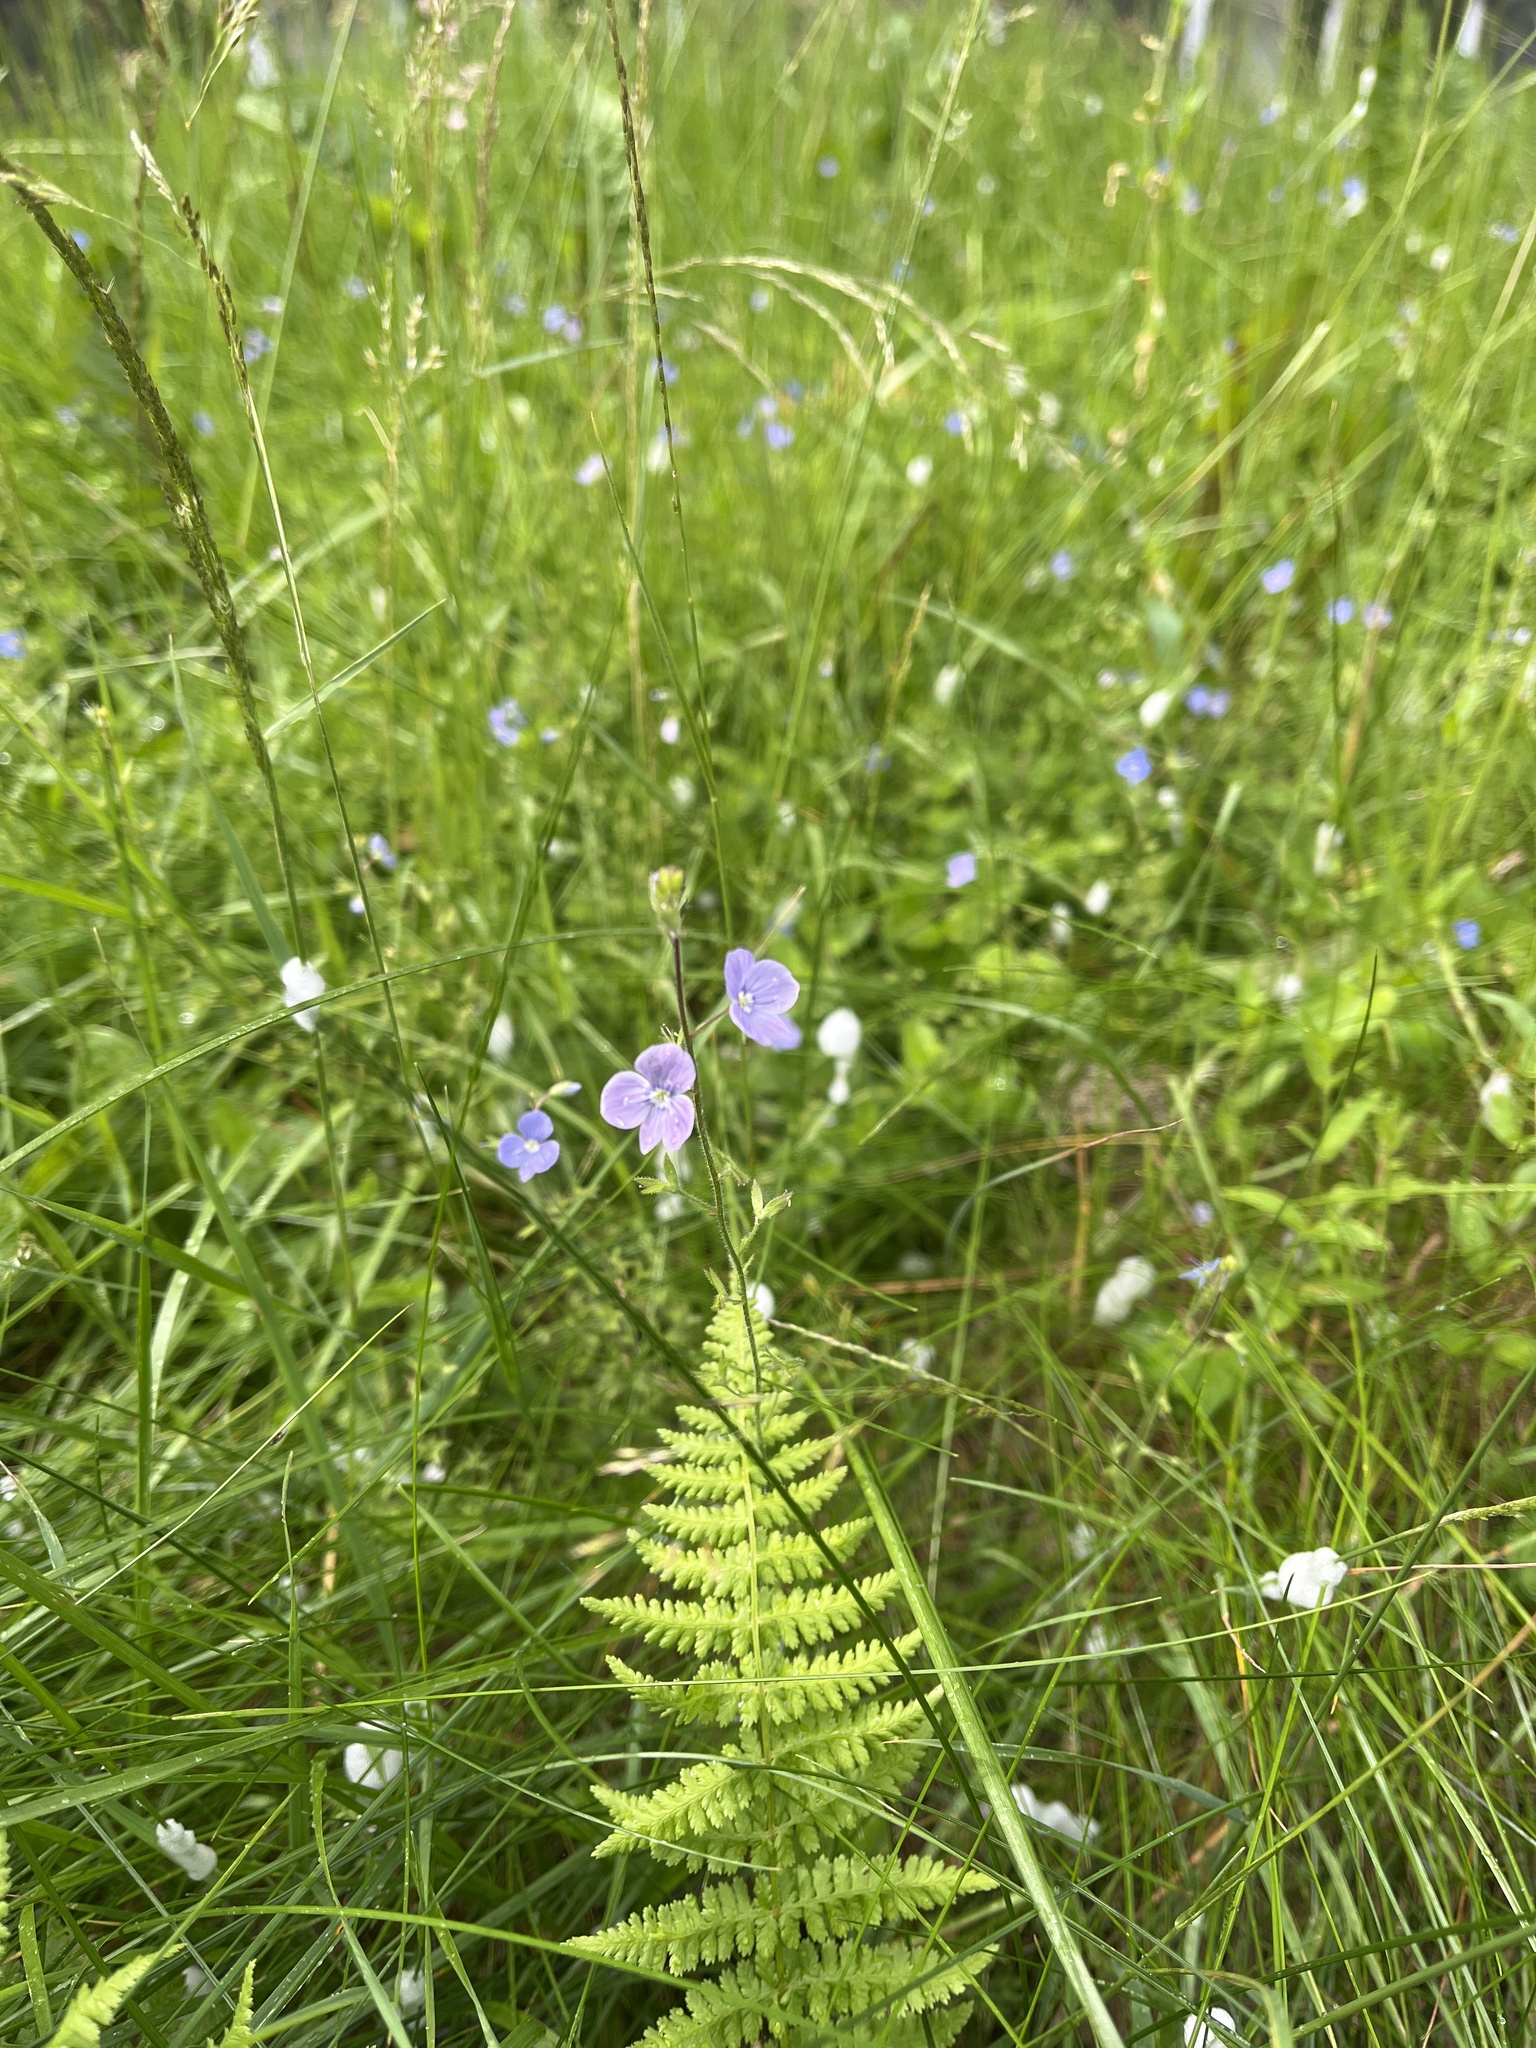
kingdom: Plantae
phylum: Tracheophyta
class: Magnoliopsida
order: Lamiales
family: Plantaginaceae
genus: Veronica
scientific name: Veronica chamaedrys
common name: Germander speedwell
